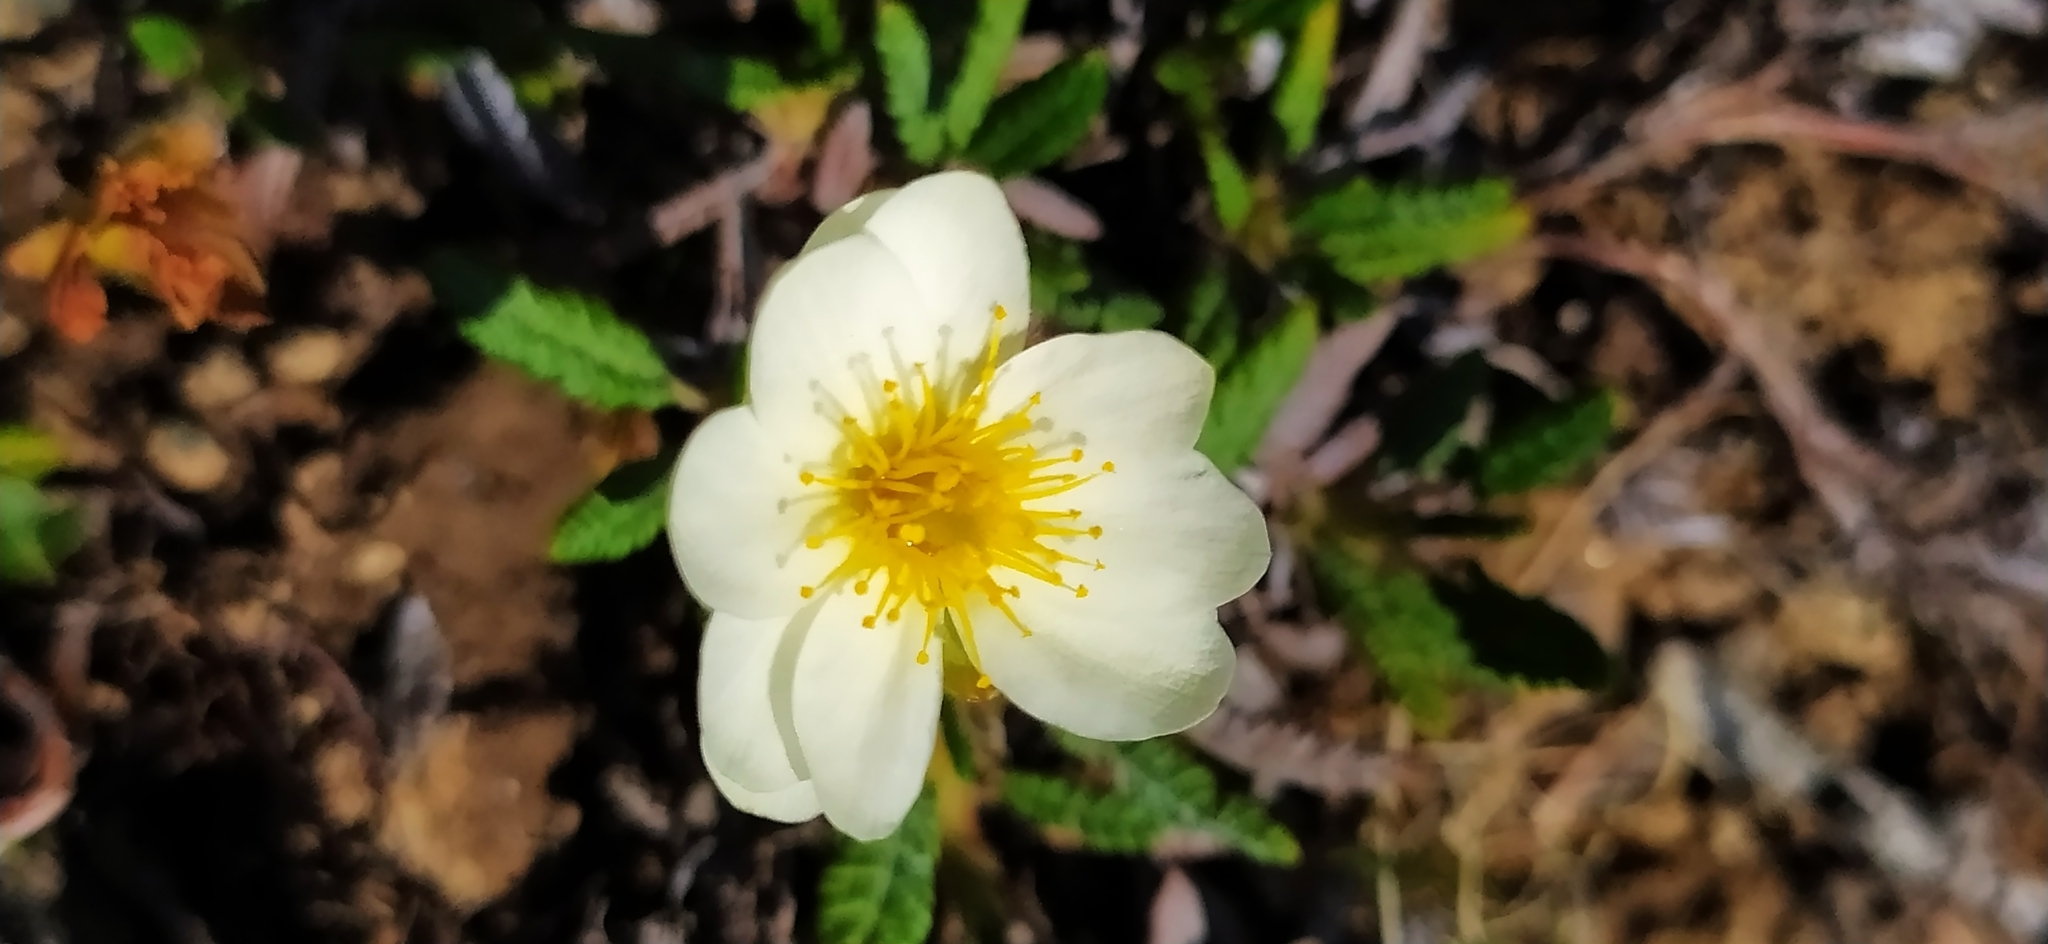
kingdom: Plantae
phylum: Tracheophyta
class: Magnoliopsida
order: Rosales
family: Rosaceae
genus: Dryas
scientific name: Dryas octopetala
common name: Eight-petal mountain-avens
